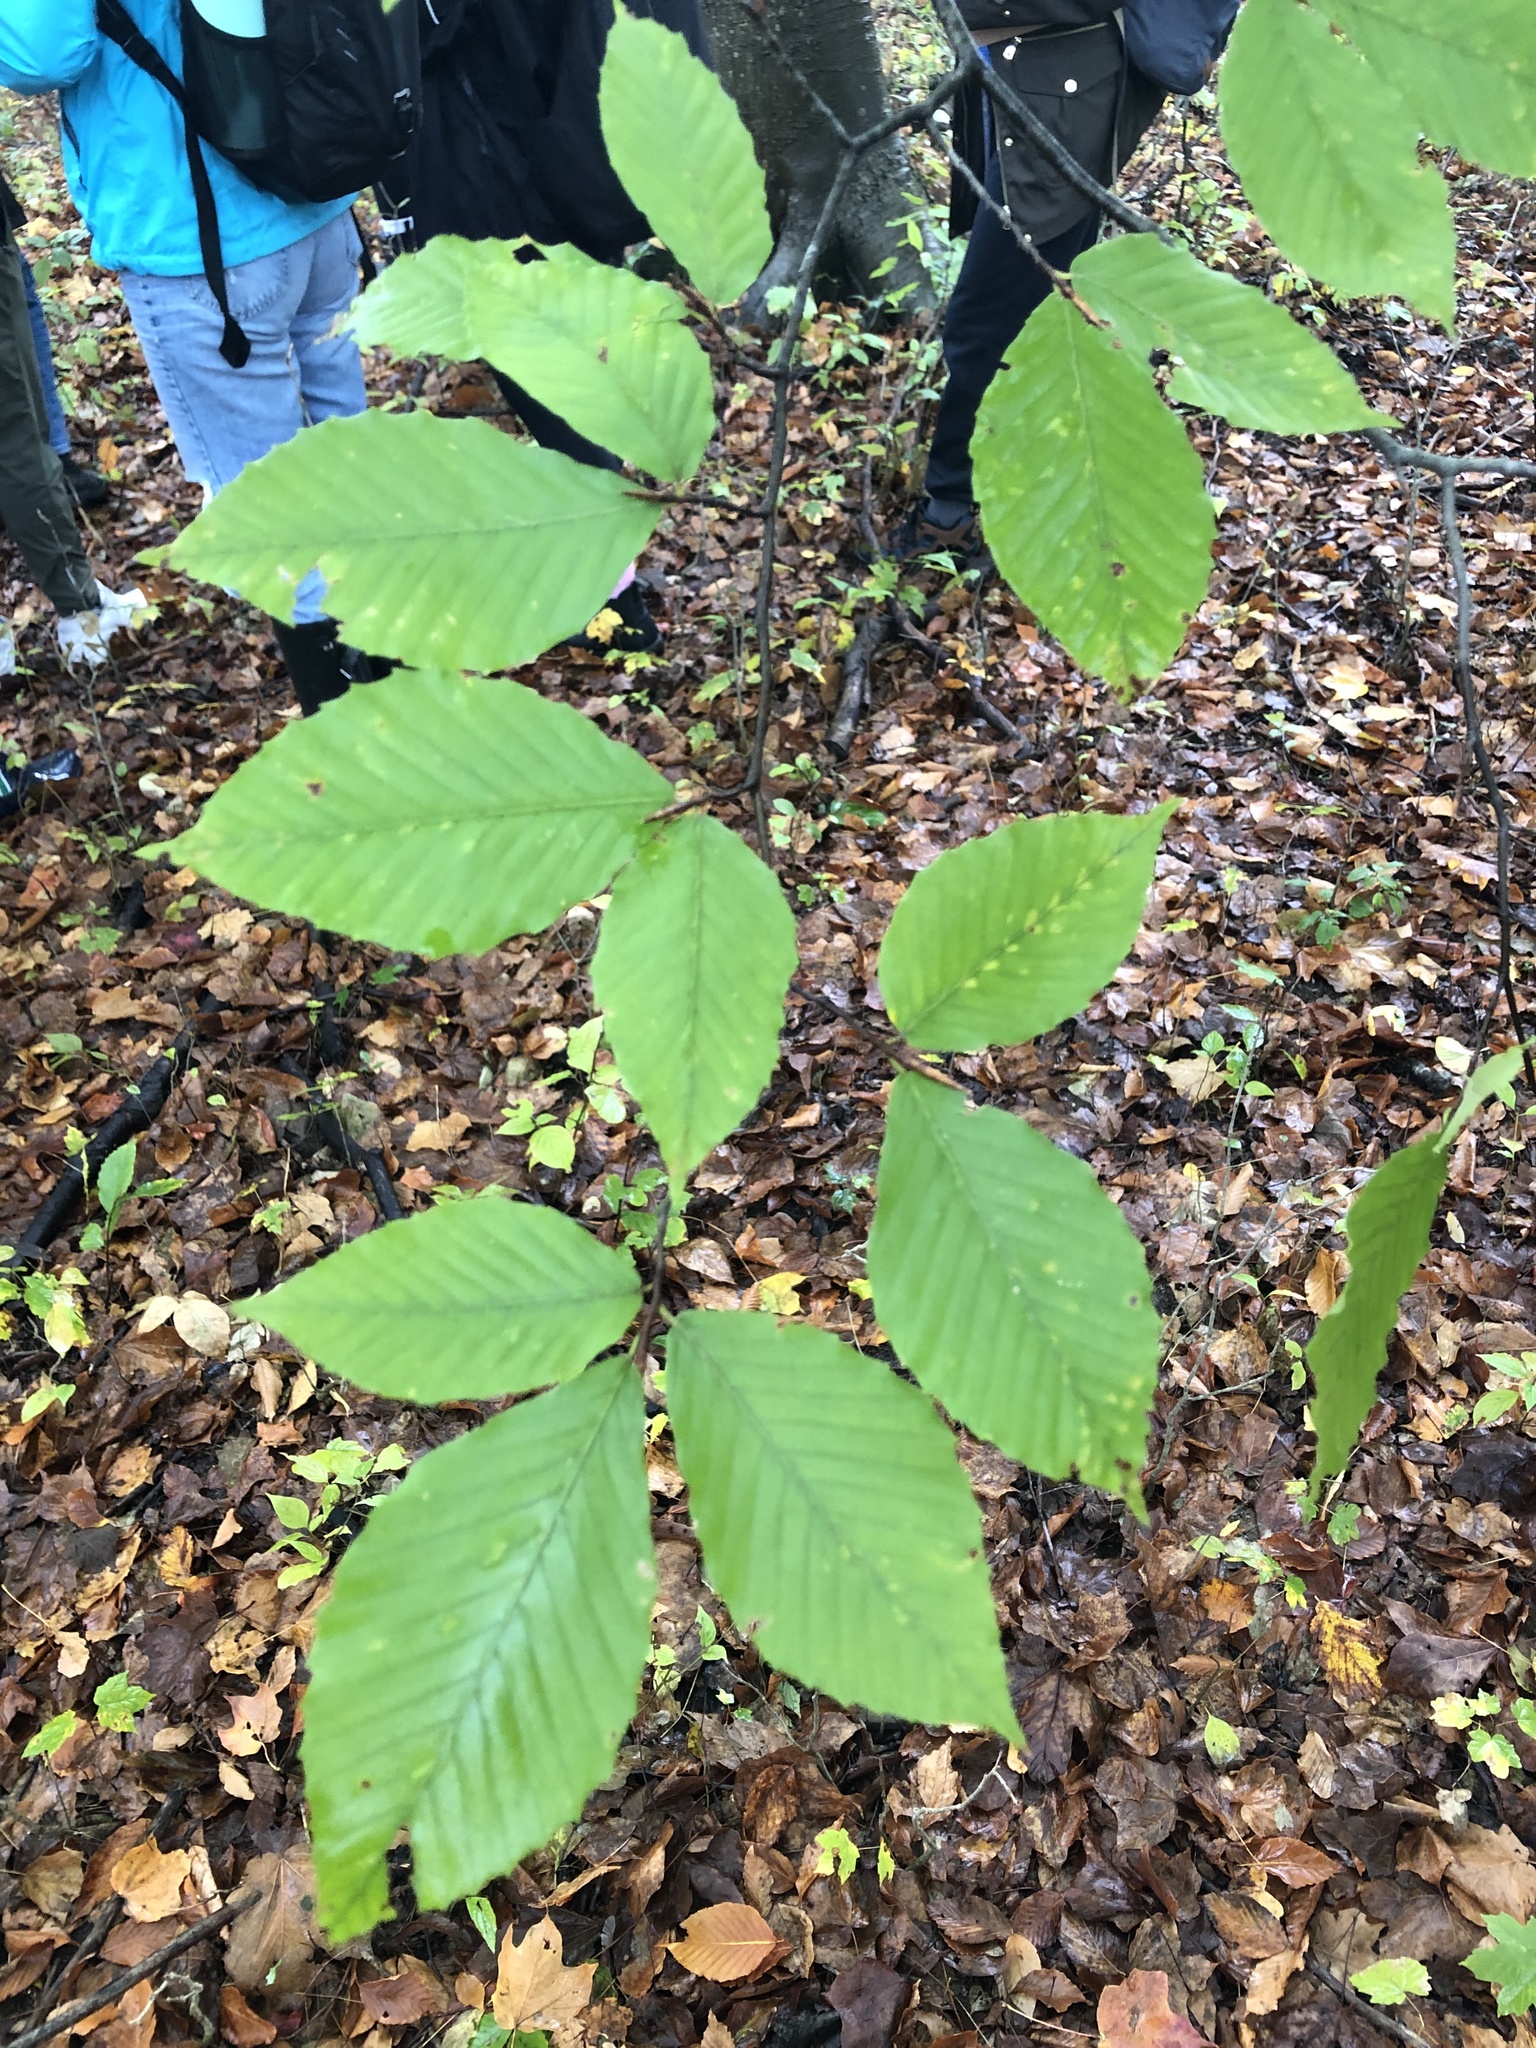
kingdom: Plantae
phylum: Tracheophyta
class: Magnoliopsida
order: Fagales
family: Fagaceae
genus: Fagus
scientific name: Fagus grandifolia
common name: American beech
